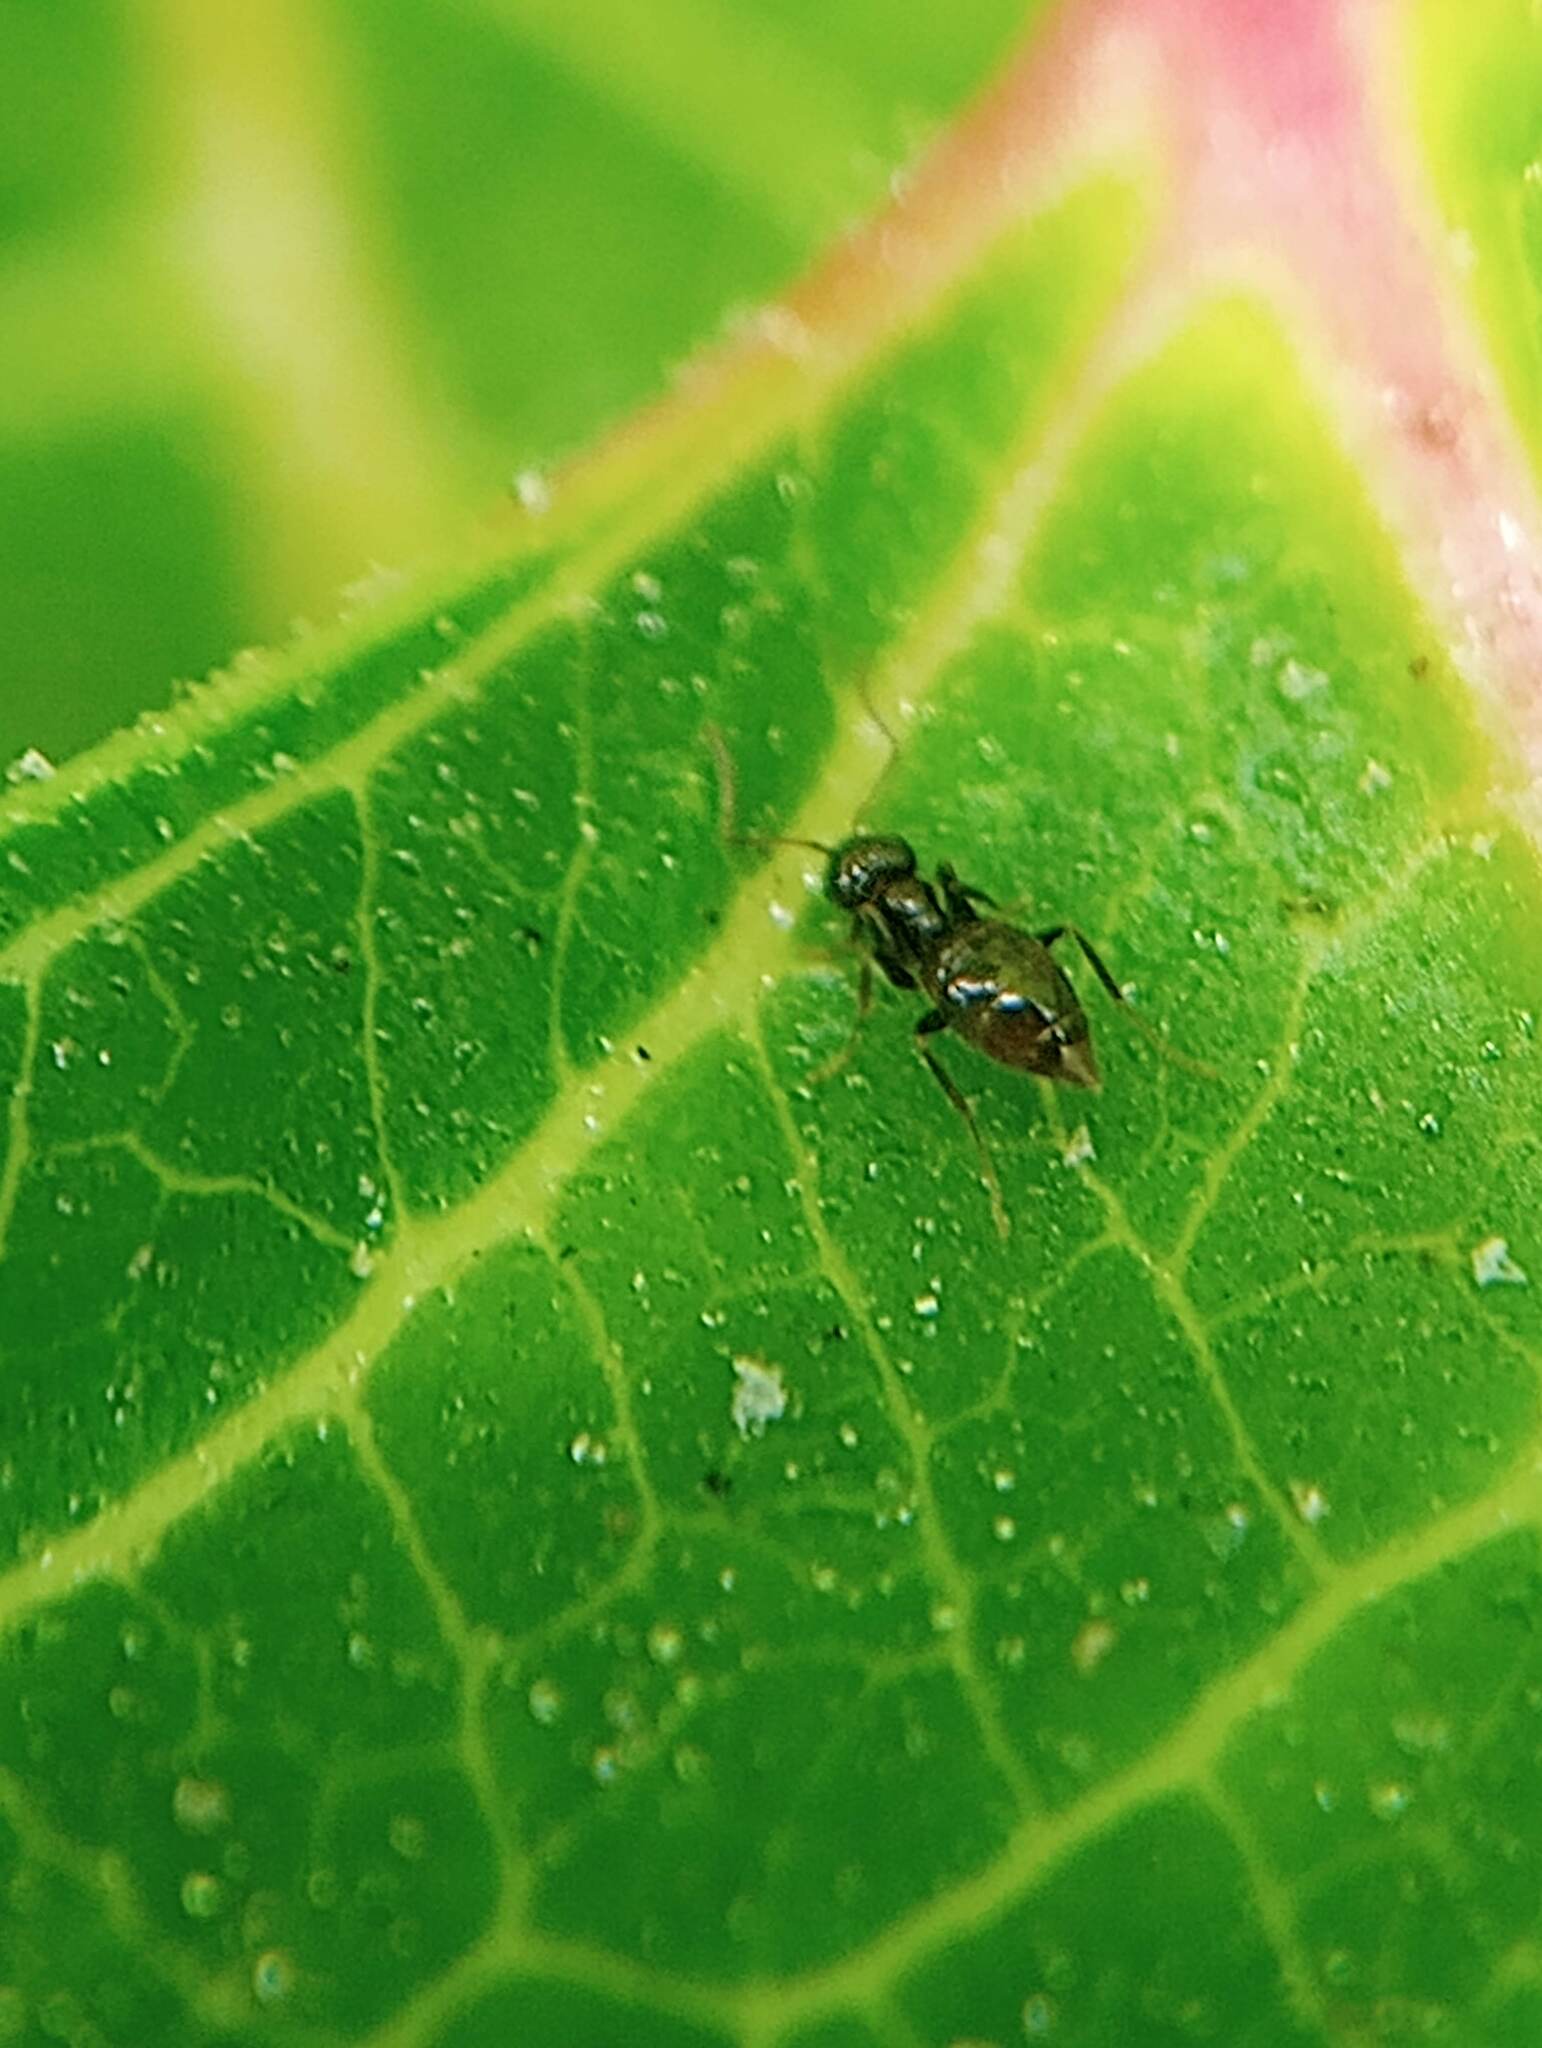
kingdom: Animalia
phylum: Arthropoda
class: Insecta
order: Hymenoptera
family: Formicidae
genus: Brachymyrmex
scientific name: Brachymyrmex patagonicus
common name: Dark rover ant
